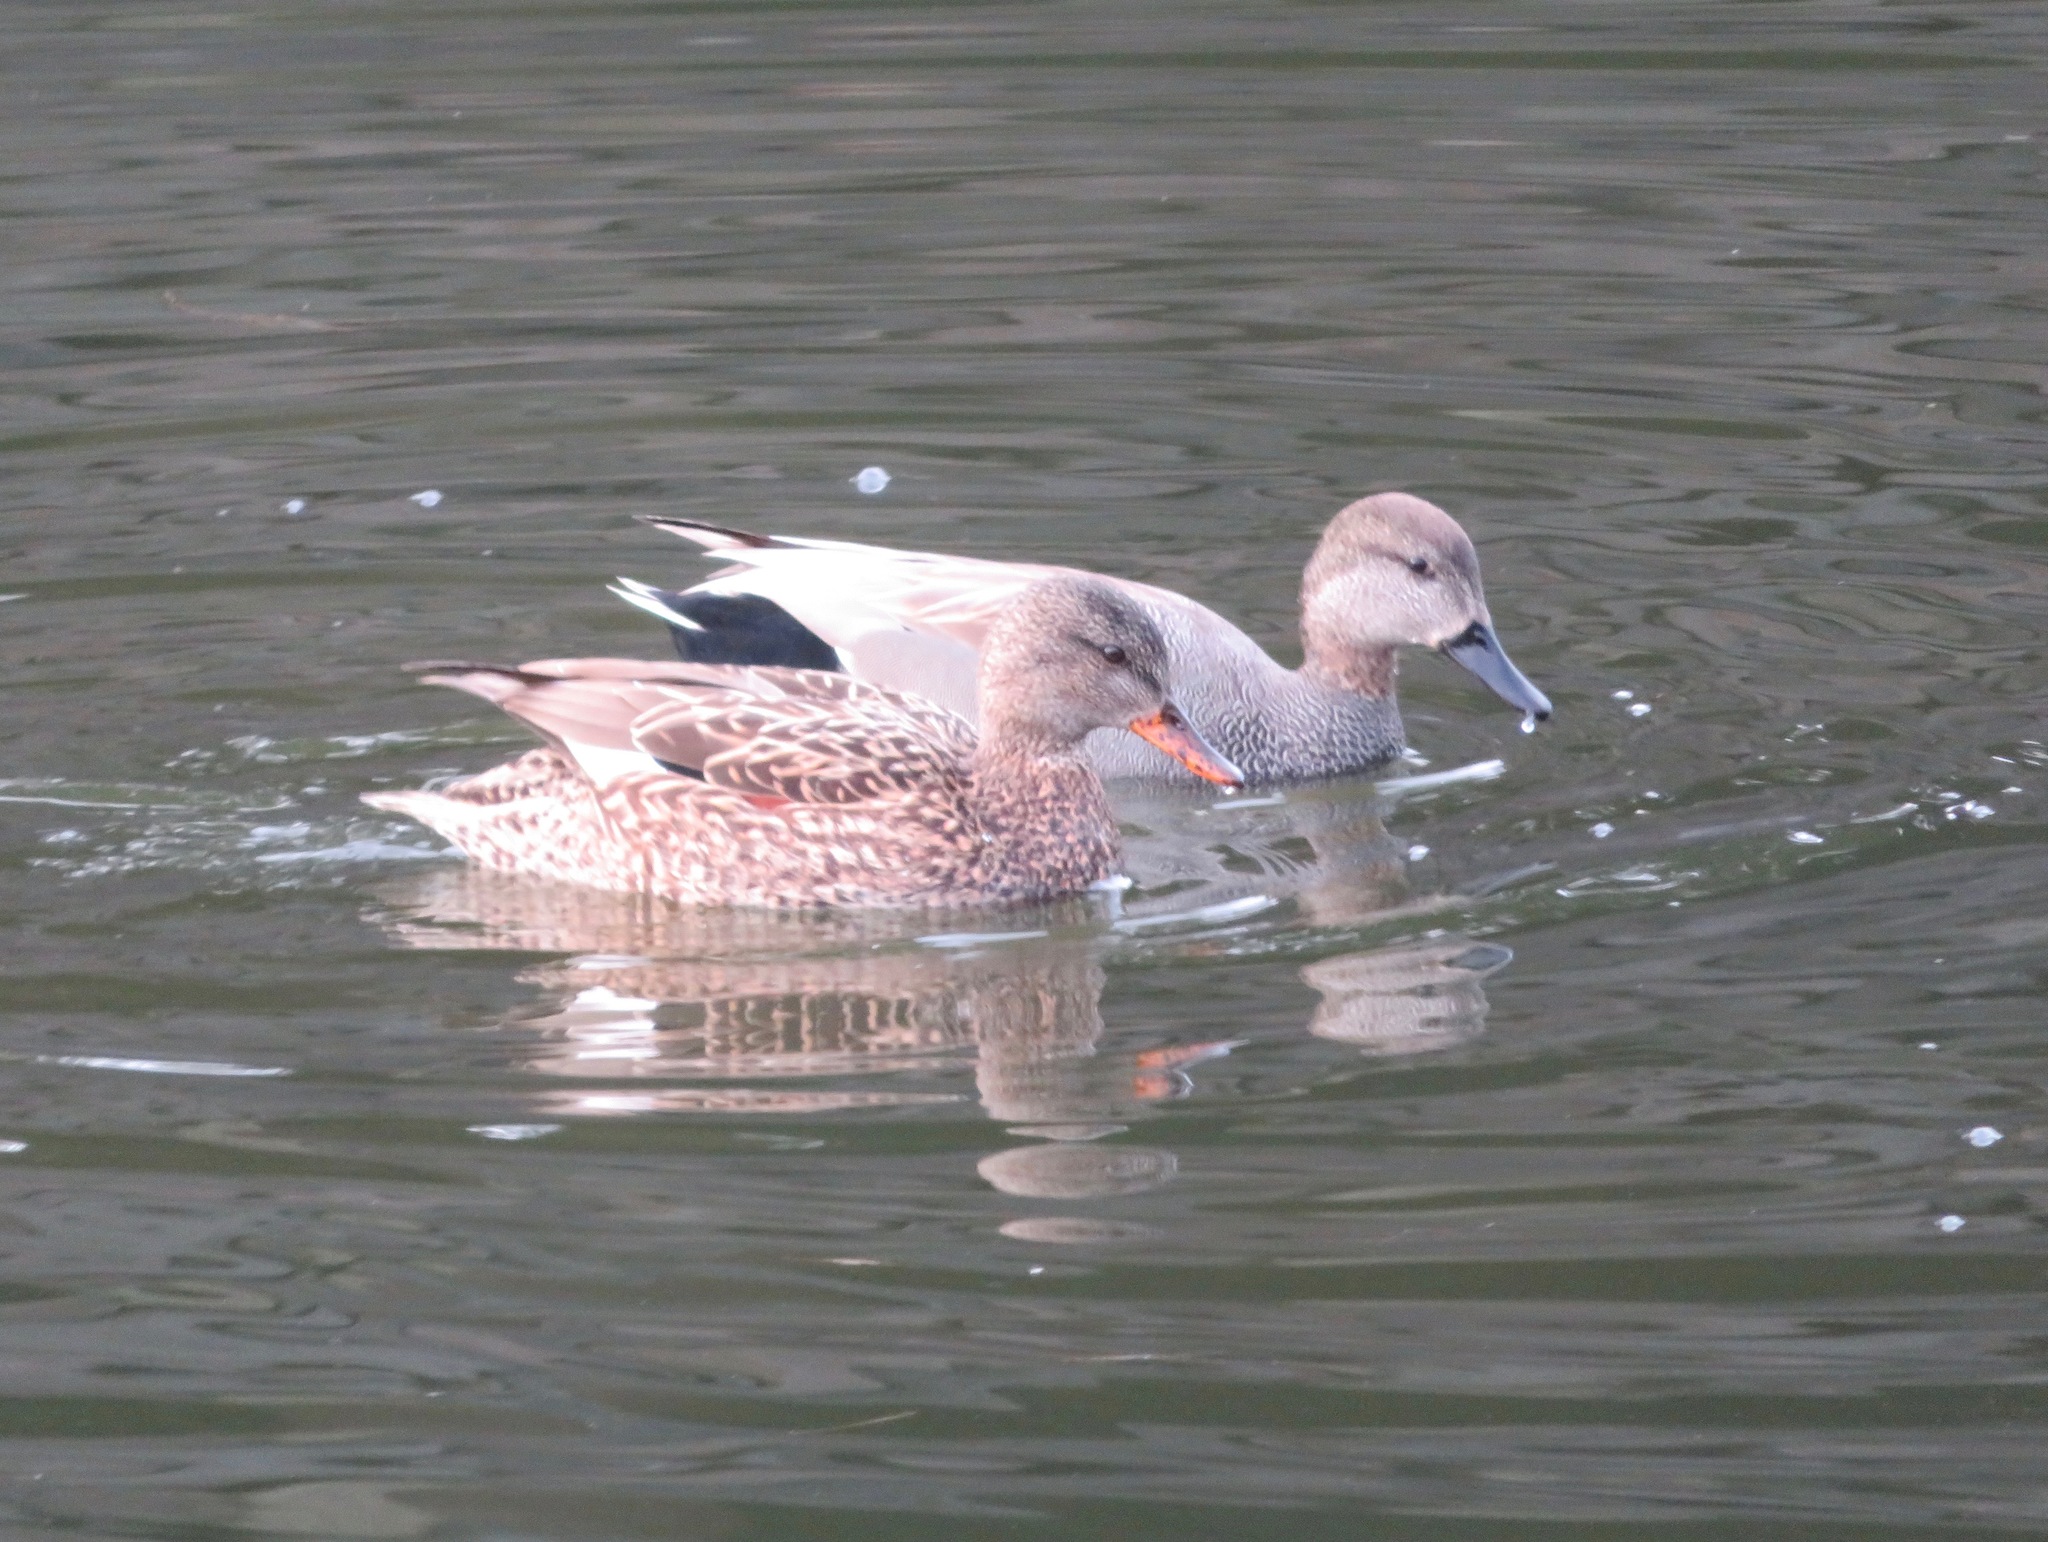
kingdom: Animalia
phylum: Chordata
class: Aves
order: Anseriformes
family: Anatidae
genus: Mareca
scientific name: Mareca strepera
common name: Gadwall
